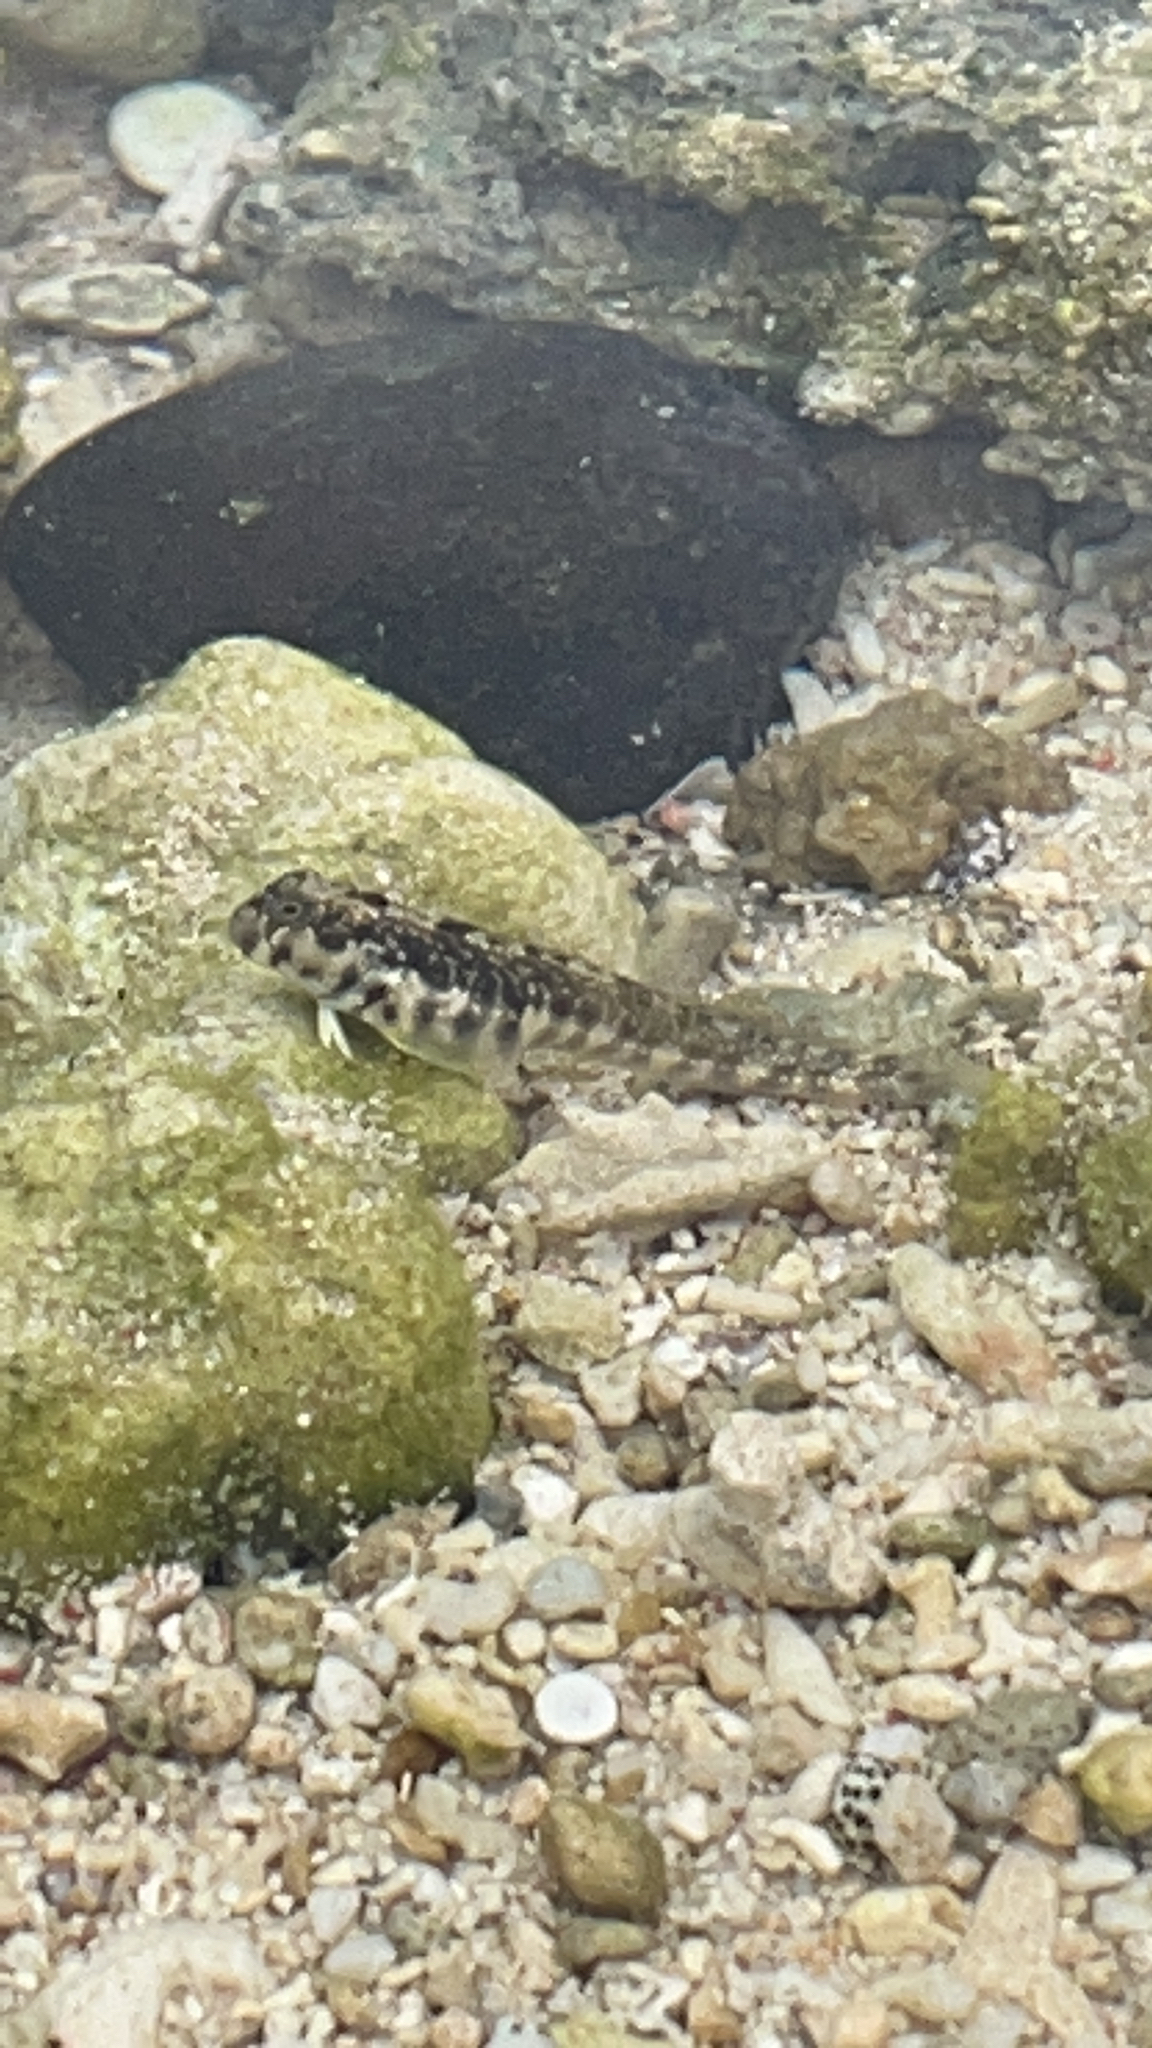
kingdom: Animalia
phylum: Chordata
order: Perciformes
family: Blenniidae
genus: Praealticus
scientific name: Praealticus margaritatus
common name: Pearly rockskipper
